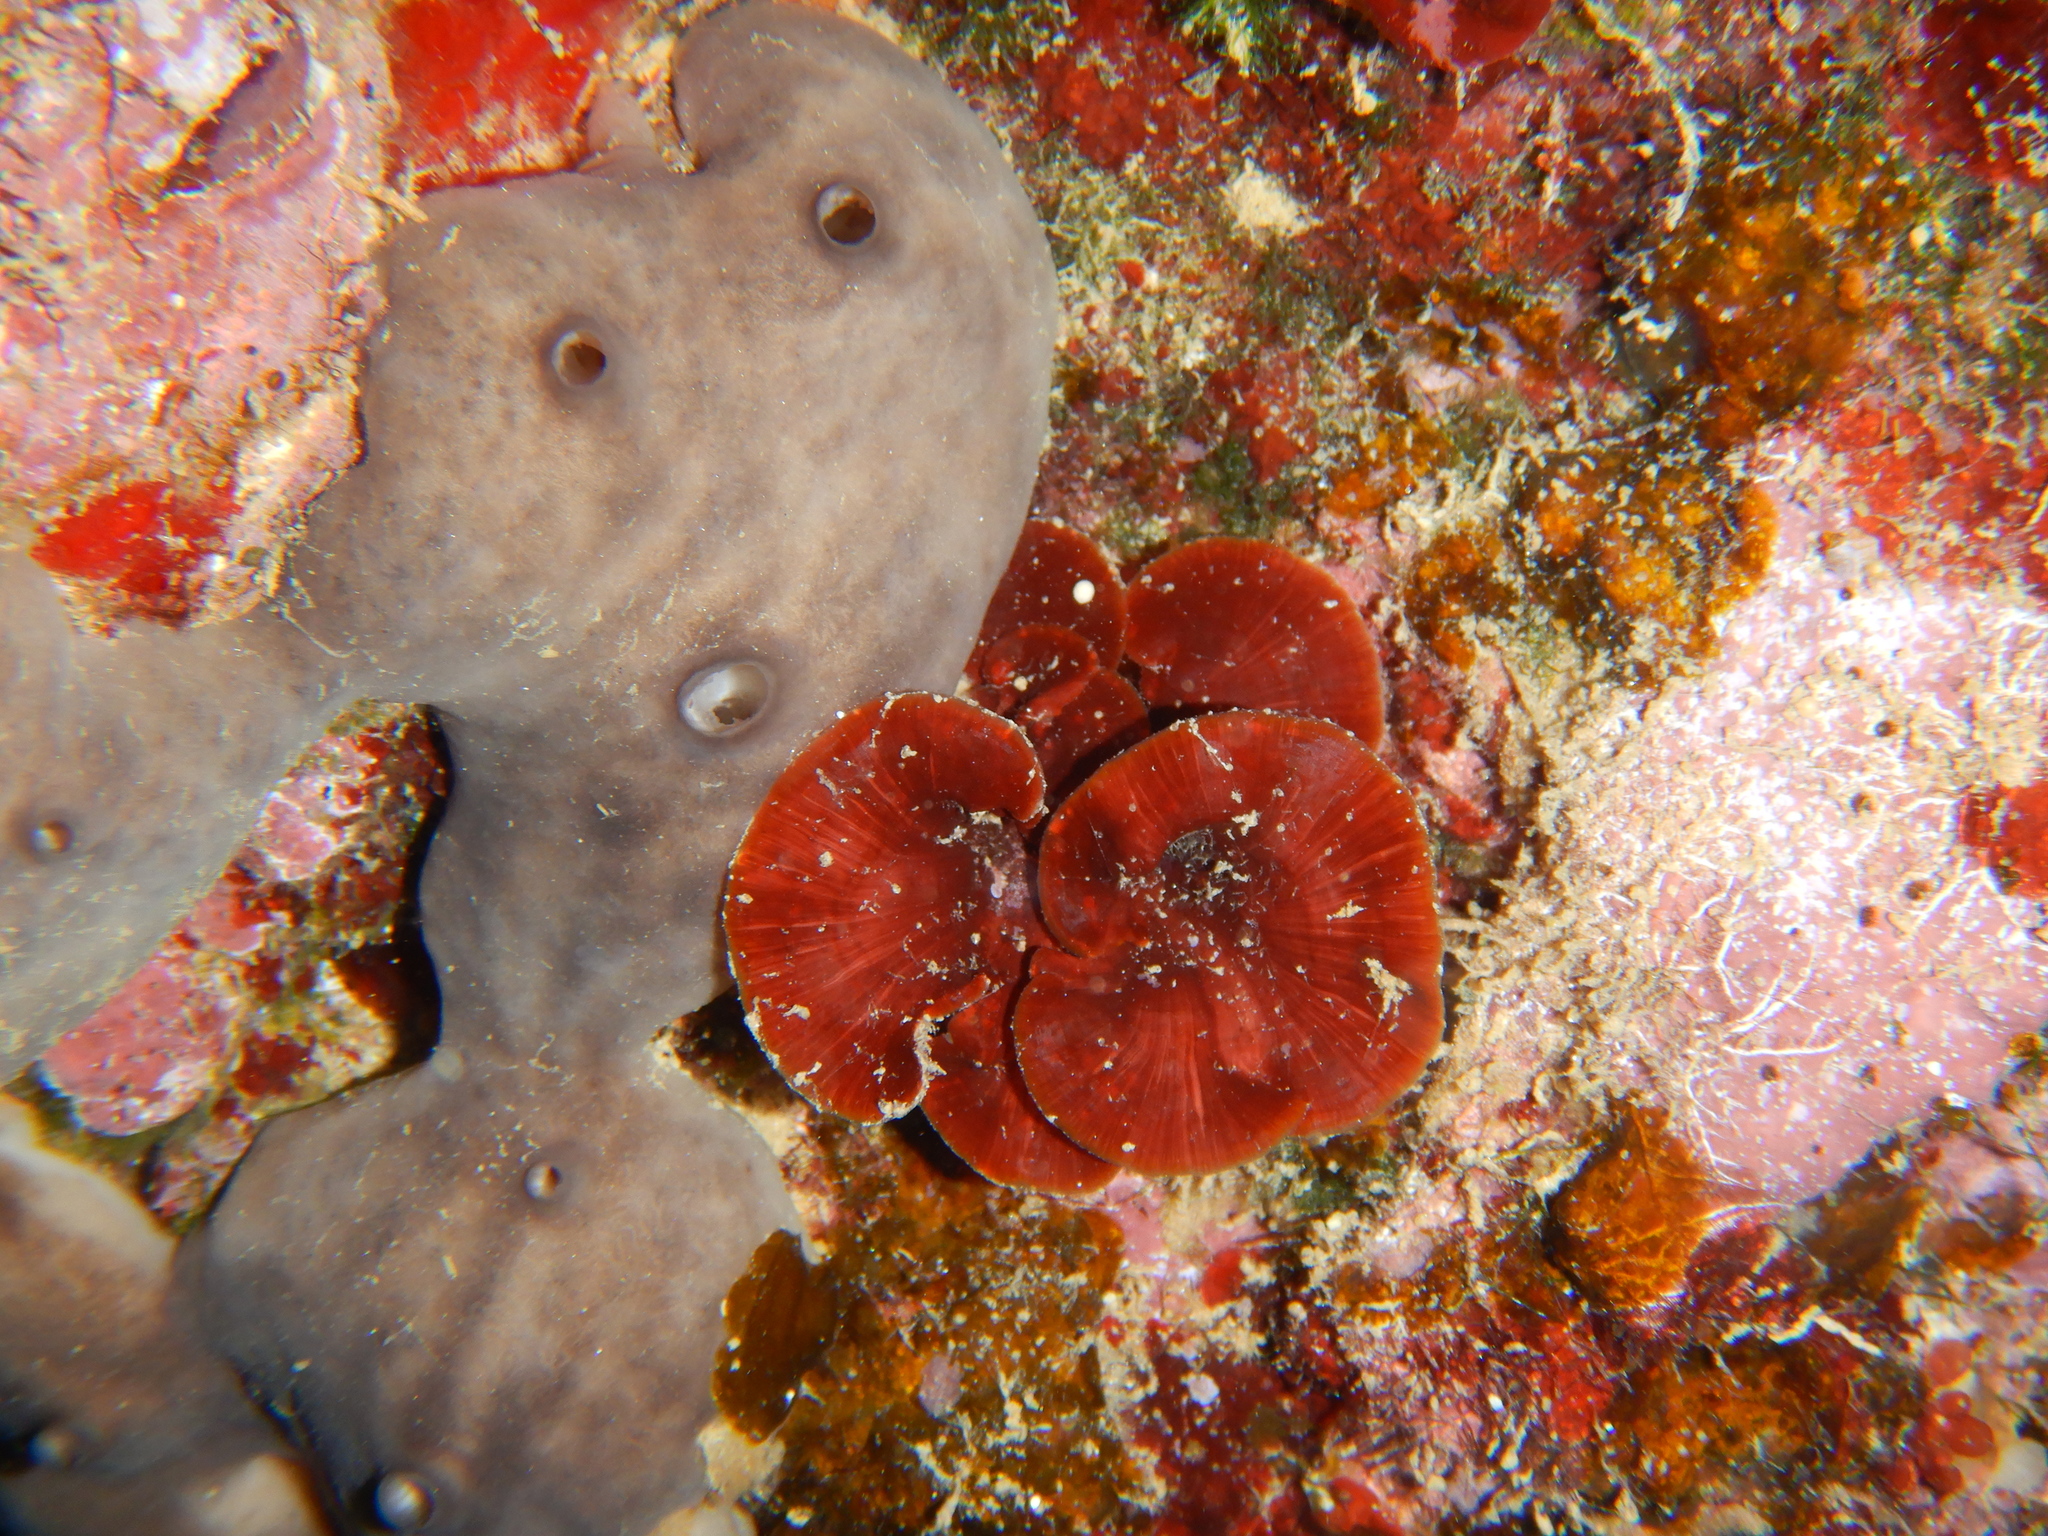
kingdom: Animalia
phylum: Porifera
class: Demospongiae
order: Chondrosiida
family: Chondrosiidae
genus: Chondrosia
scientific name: Chondrosia reniformis
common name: Chicken liver sponge
